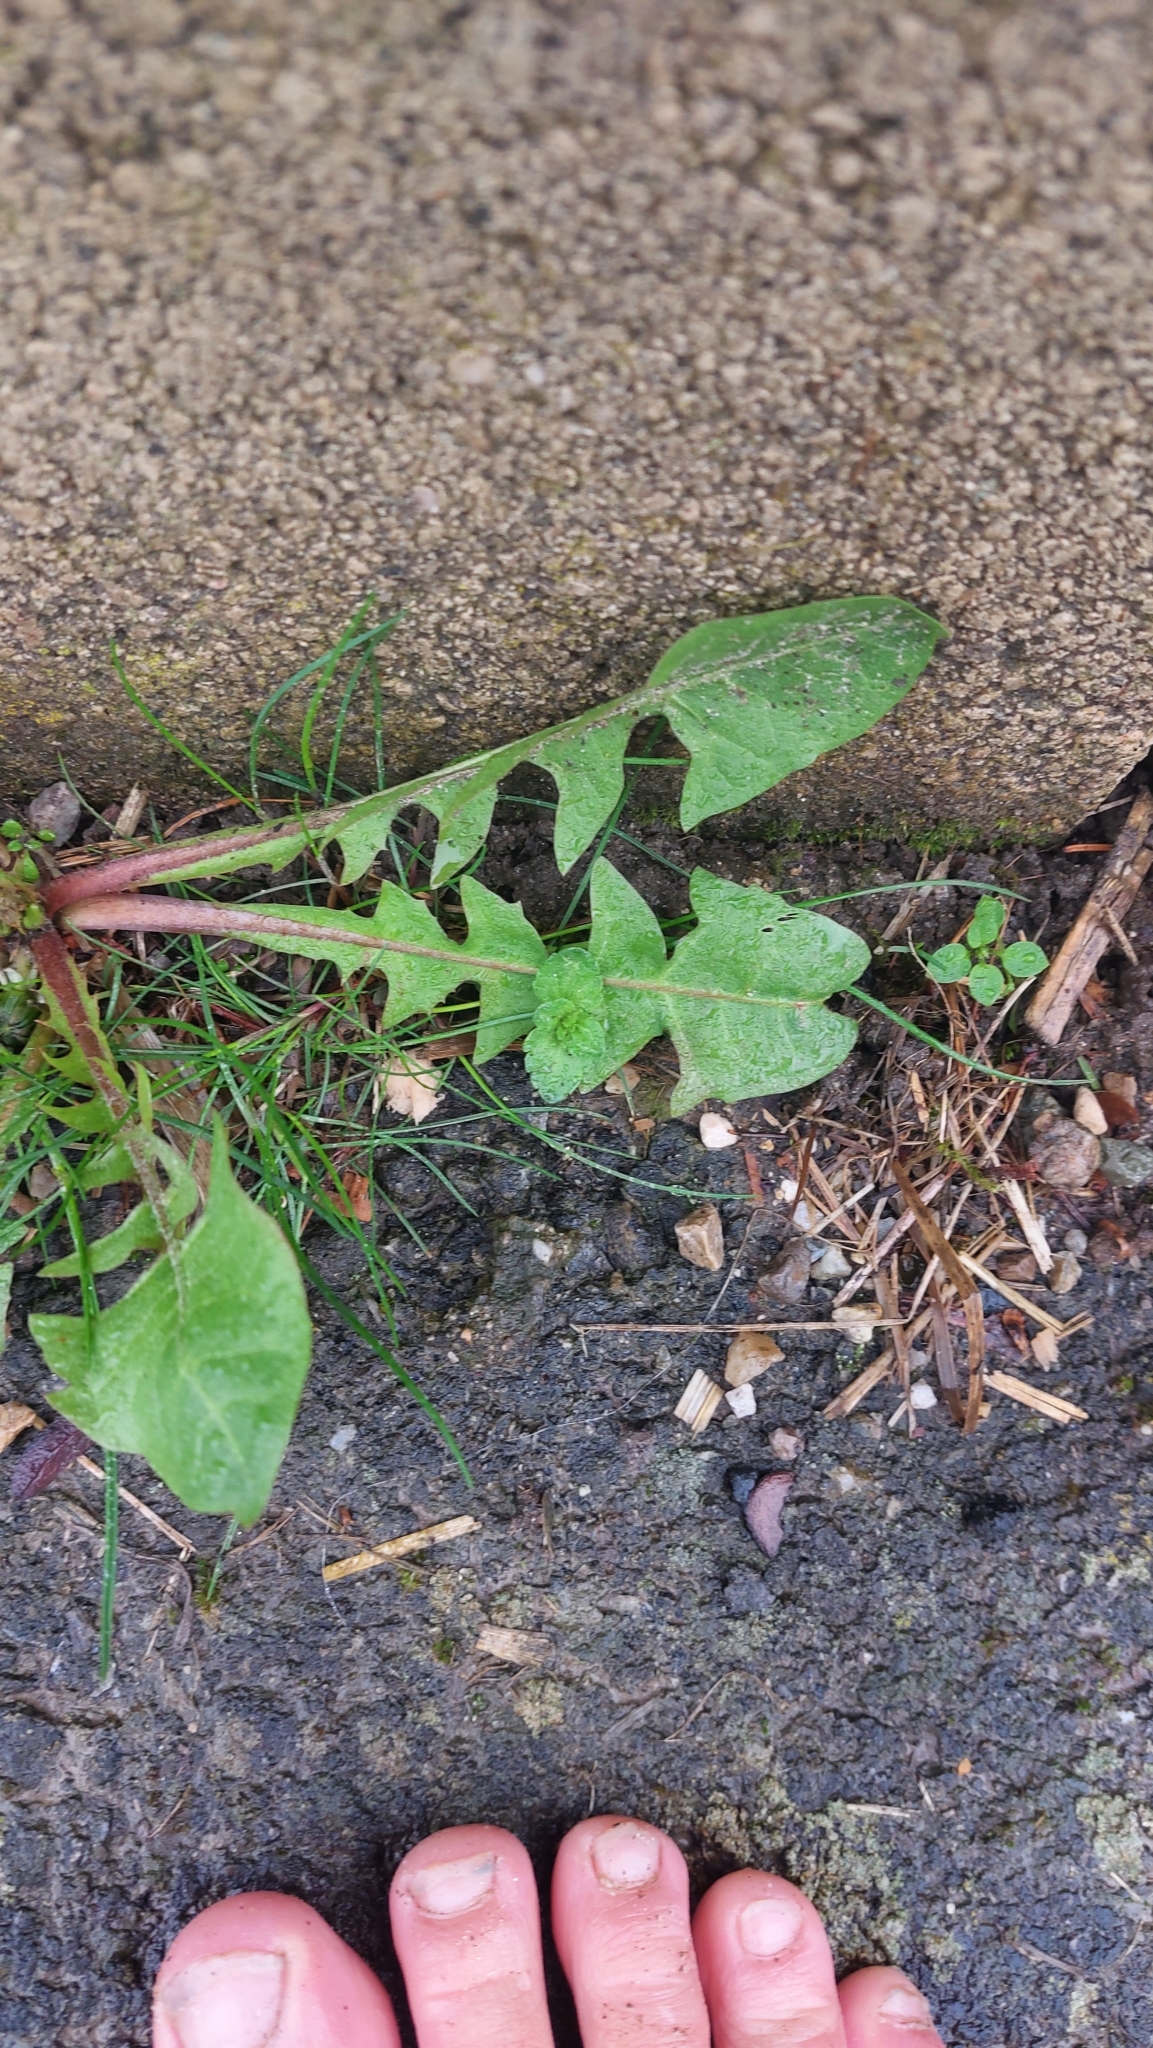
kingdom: Plantae
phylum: Tracheophyta
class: Magnoliopsida
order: Asterales
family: Asteraceae
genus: Taraxacum
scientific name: Taraxacum
